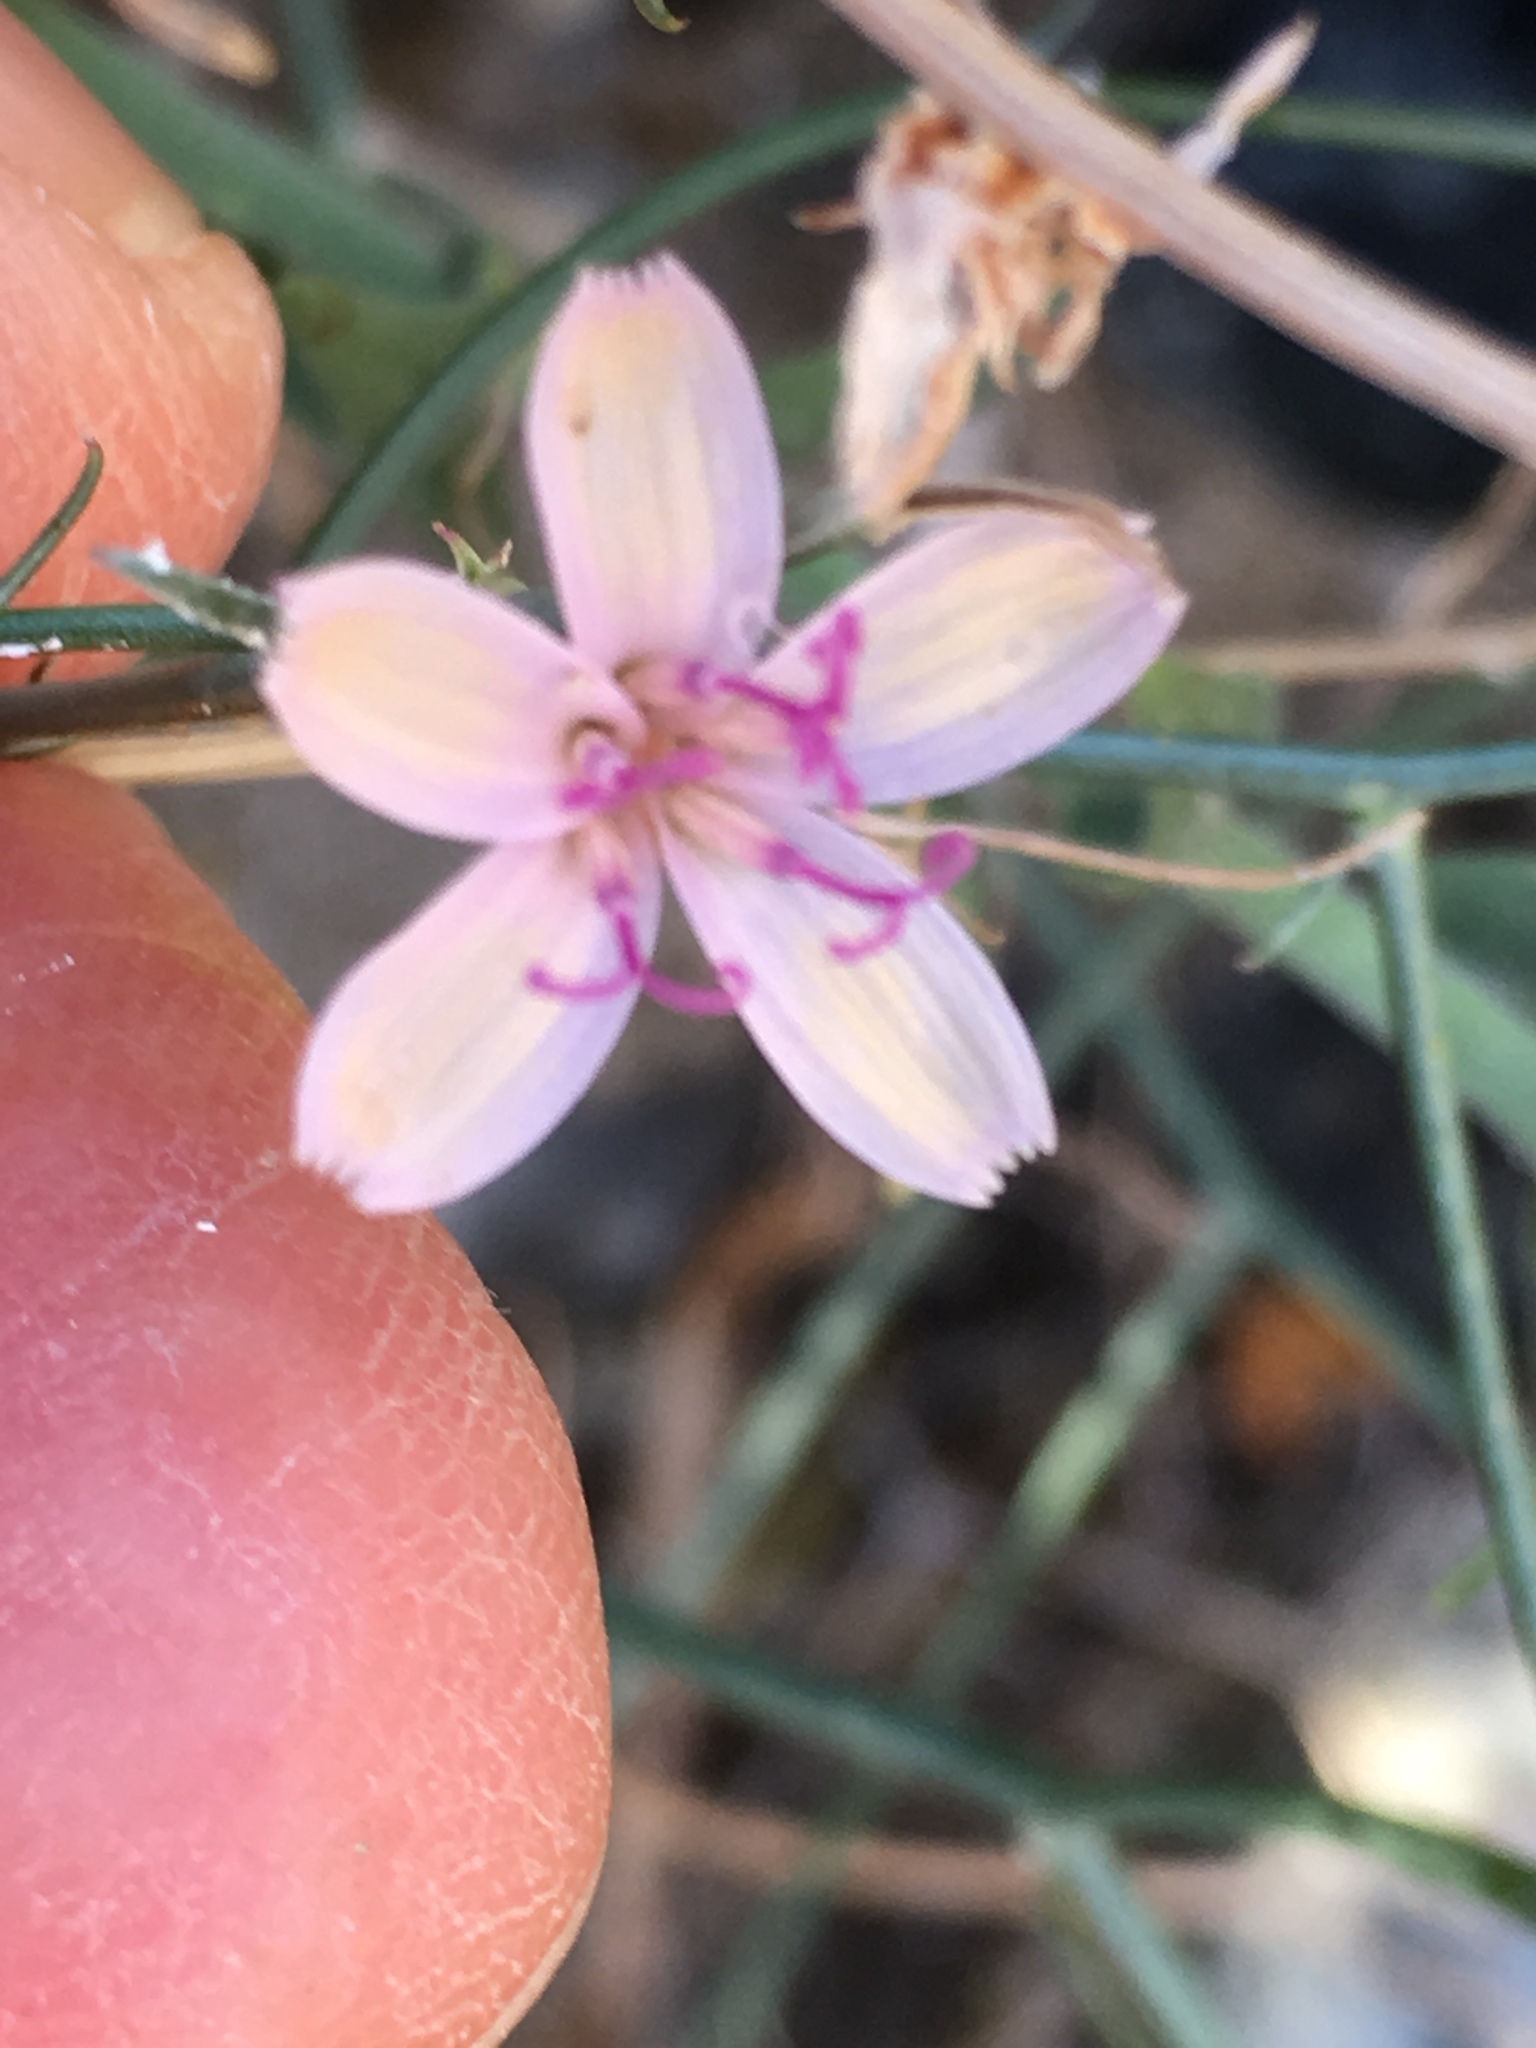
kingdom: Plantae
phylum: Tracheophyta
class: Magnoliopsida
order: Asterales
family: Asteraceae
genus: Stephanomeria
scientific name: Stephanomeria pauciflora
